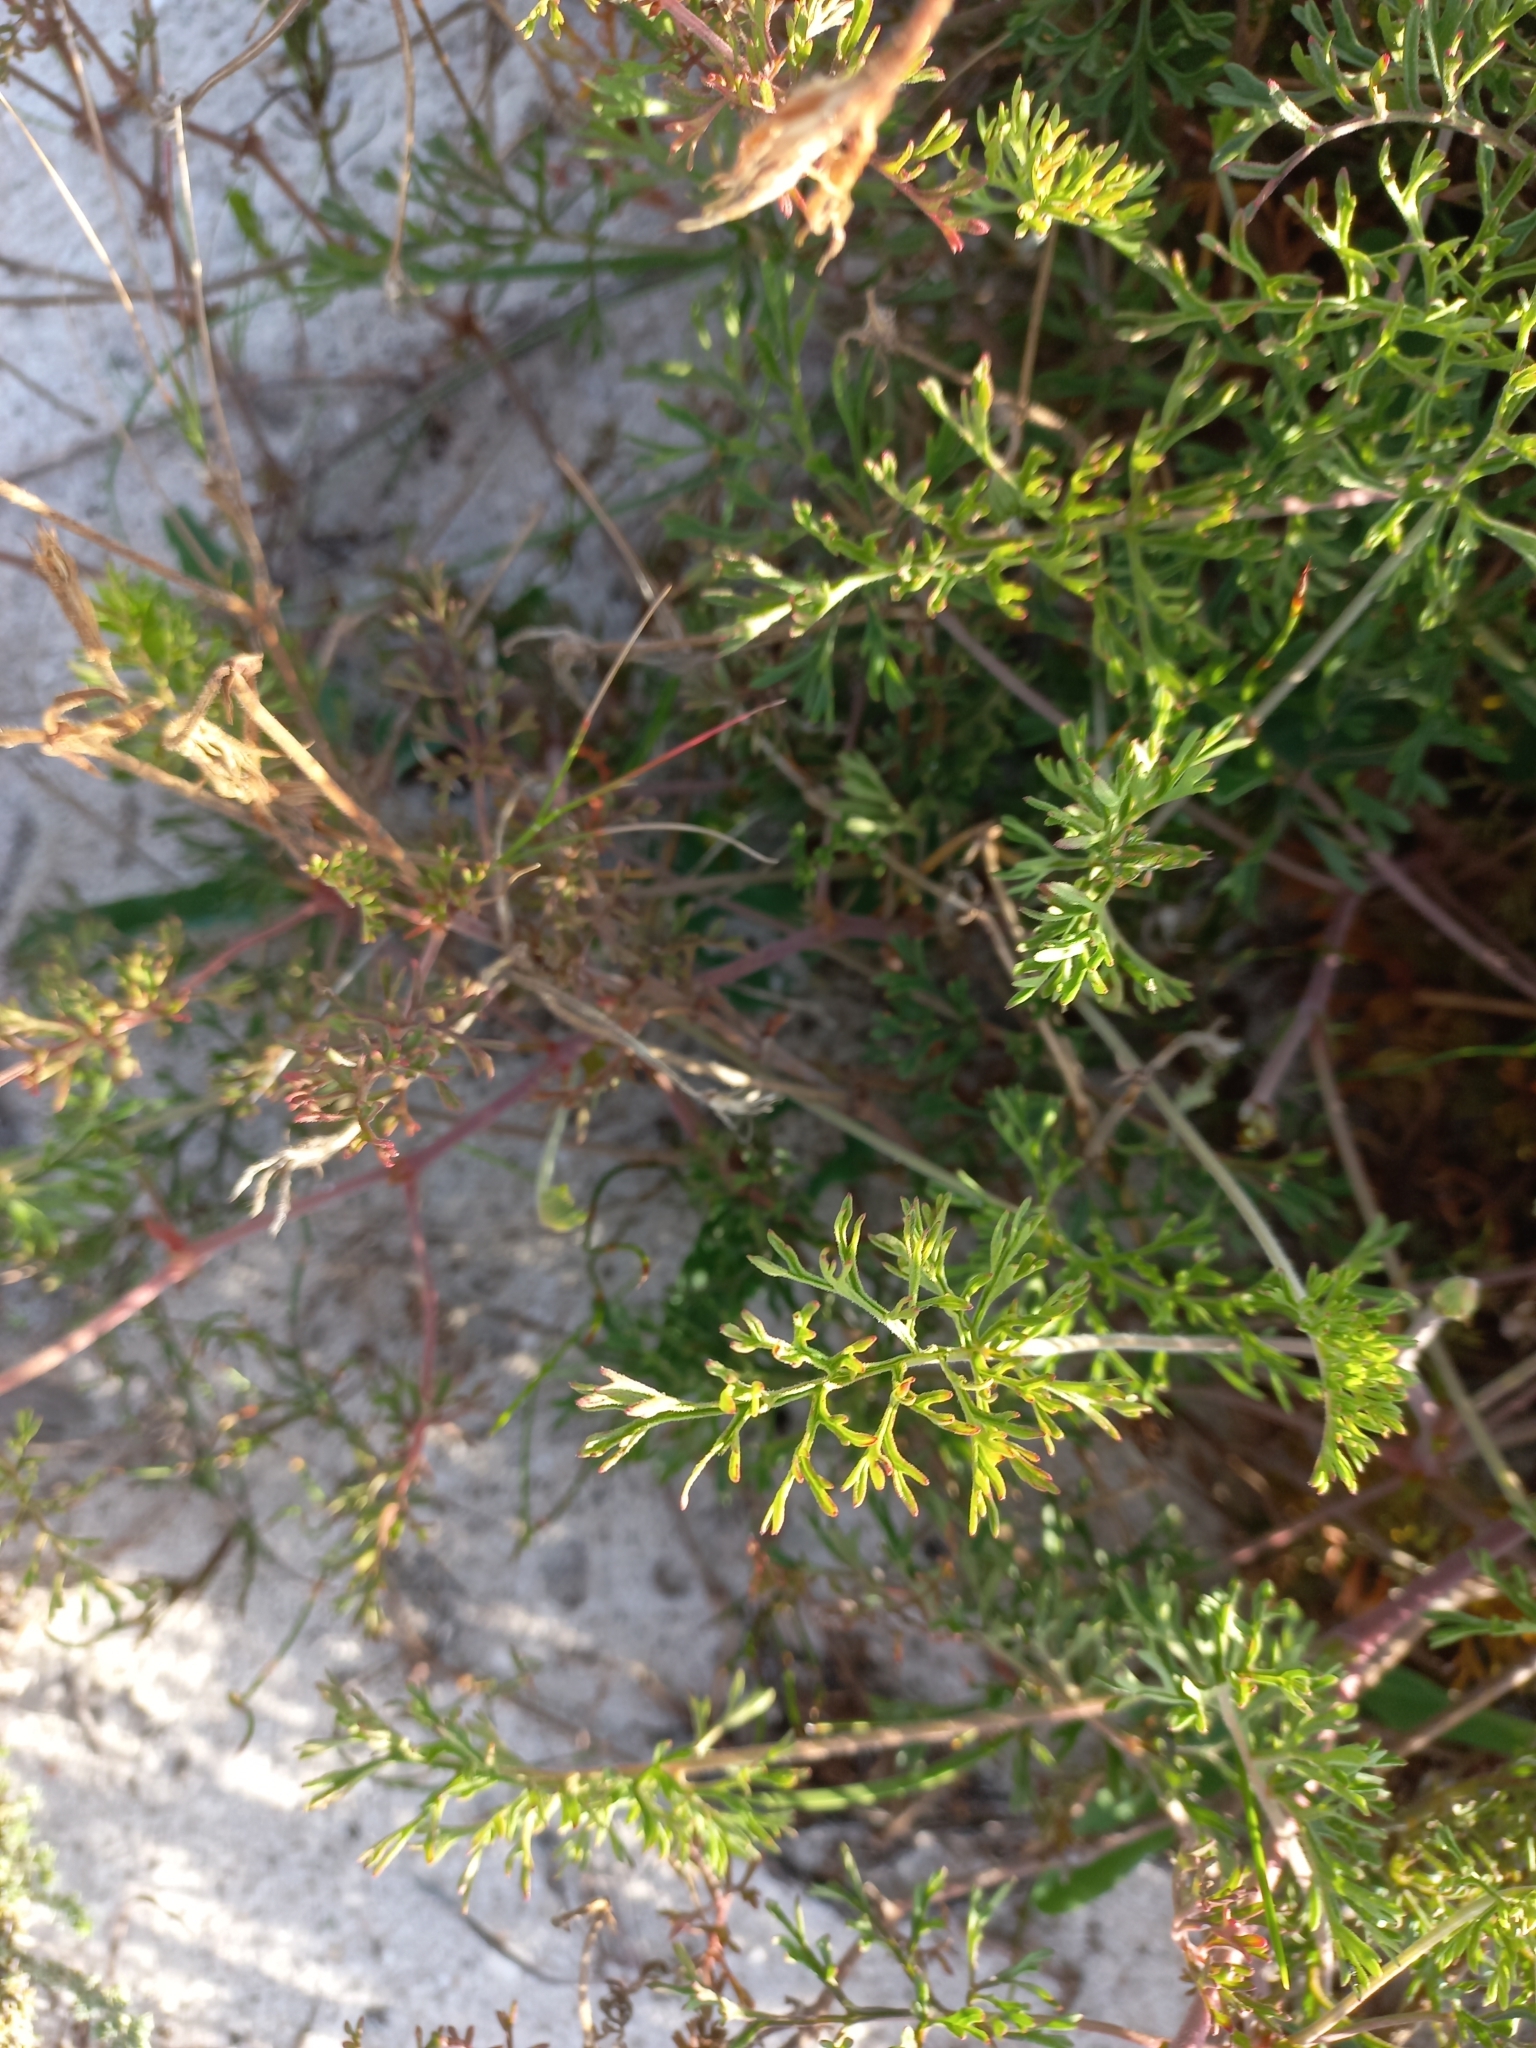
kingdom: Plantae
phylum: Tracheophyta
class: Magnoliopsida
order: Geraniales
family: Geraniaceae
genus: Pelargonium
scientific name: Pelargonium myrrhifolium
